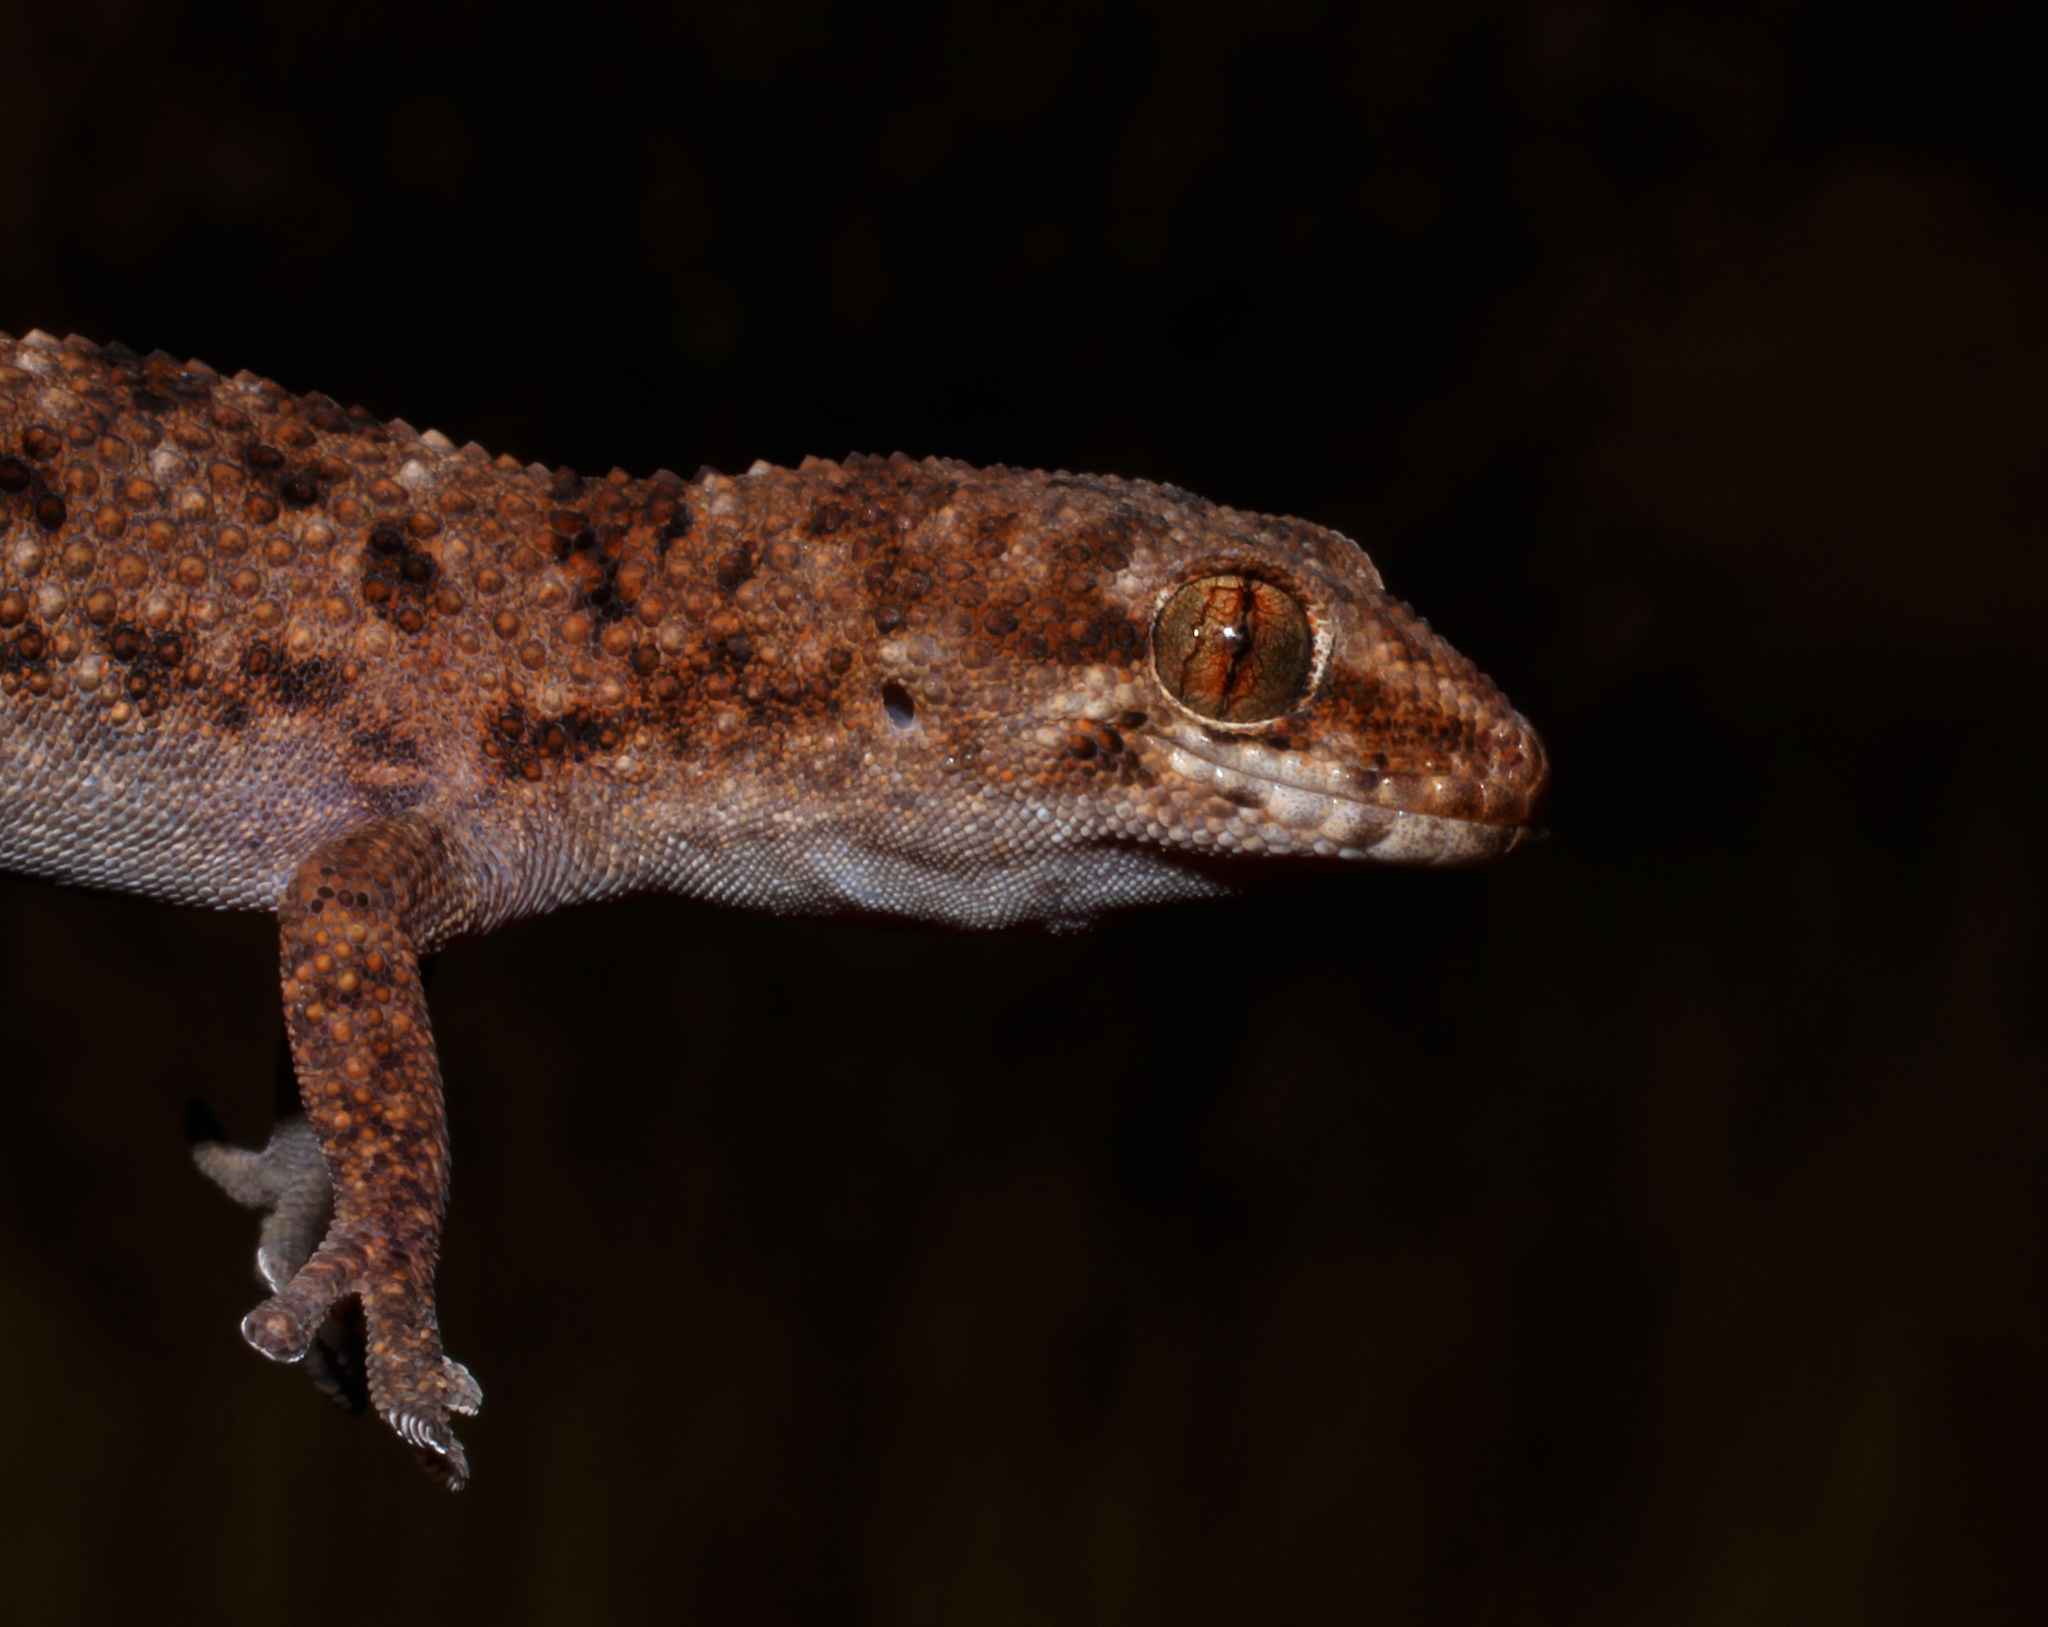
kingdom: Animalia
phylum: Chordata
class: Squamata
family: Gekkonidae
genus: Pachydactylus
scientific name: Pachydactylus capensis
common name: Cape gecko
